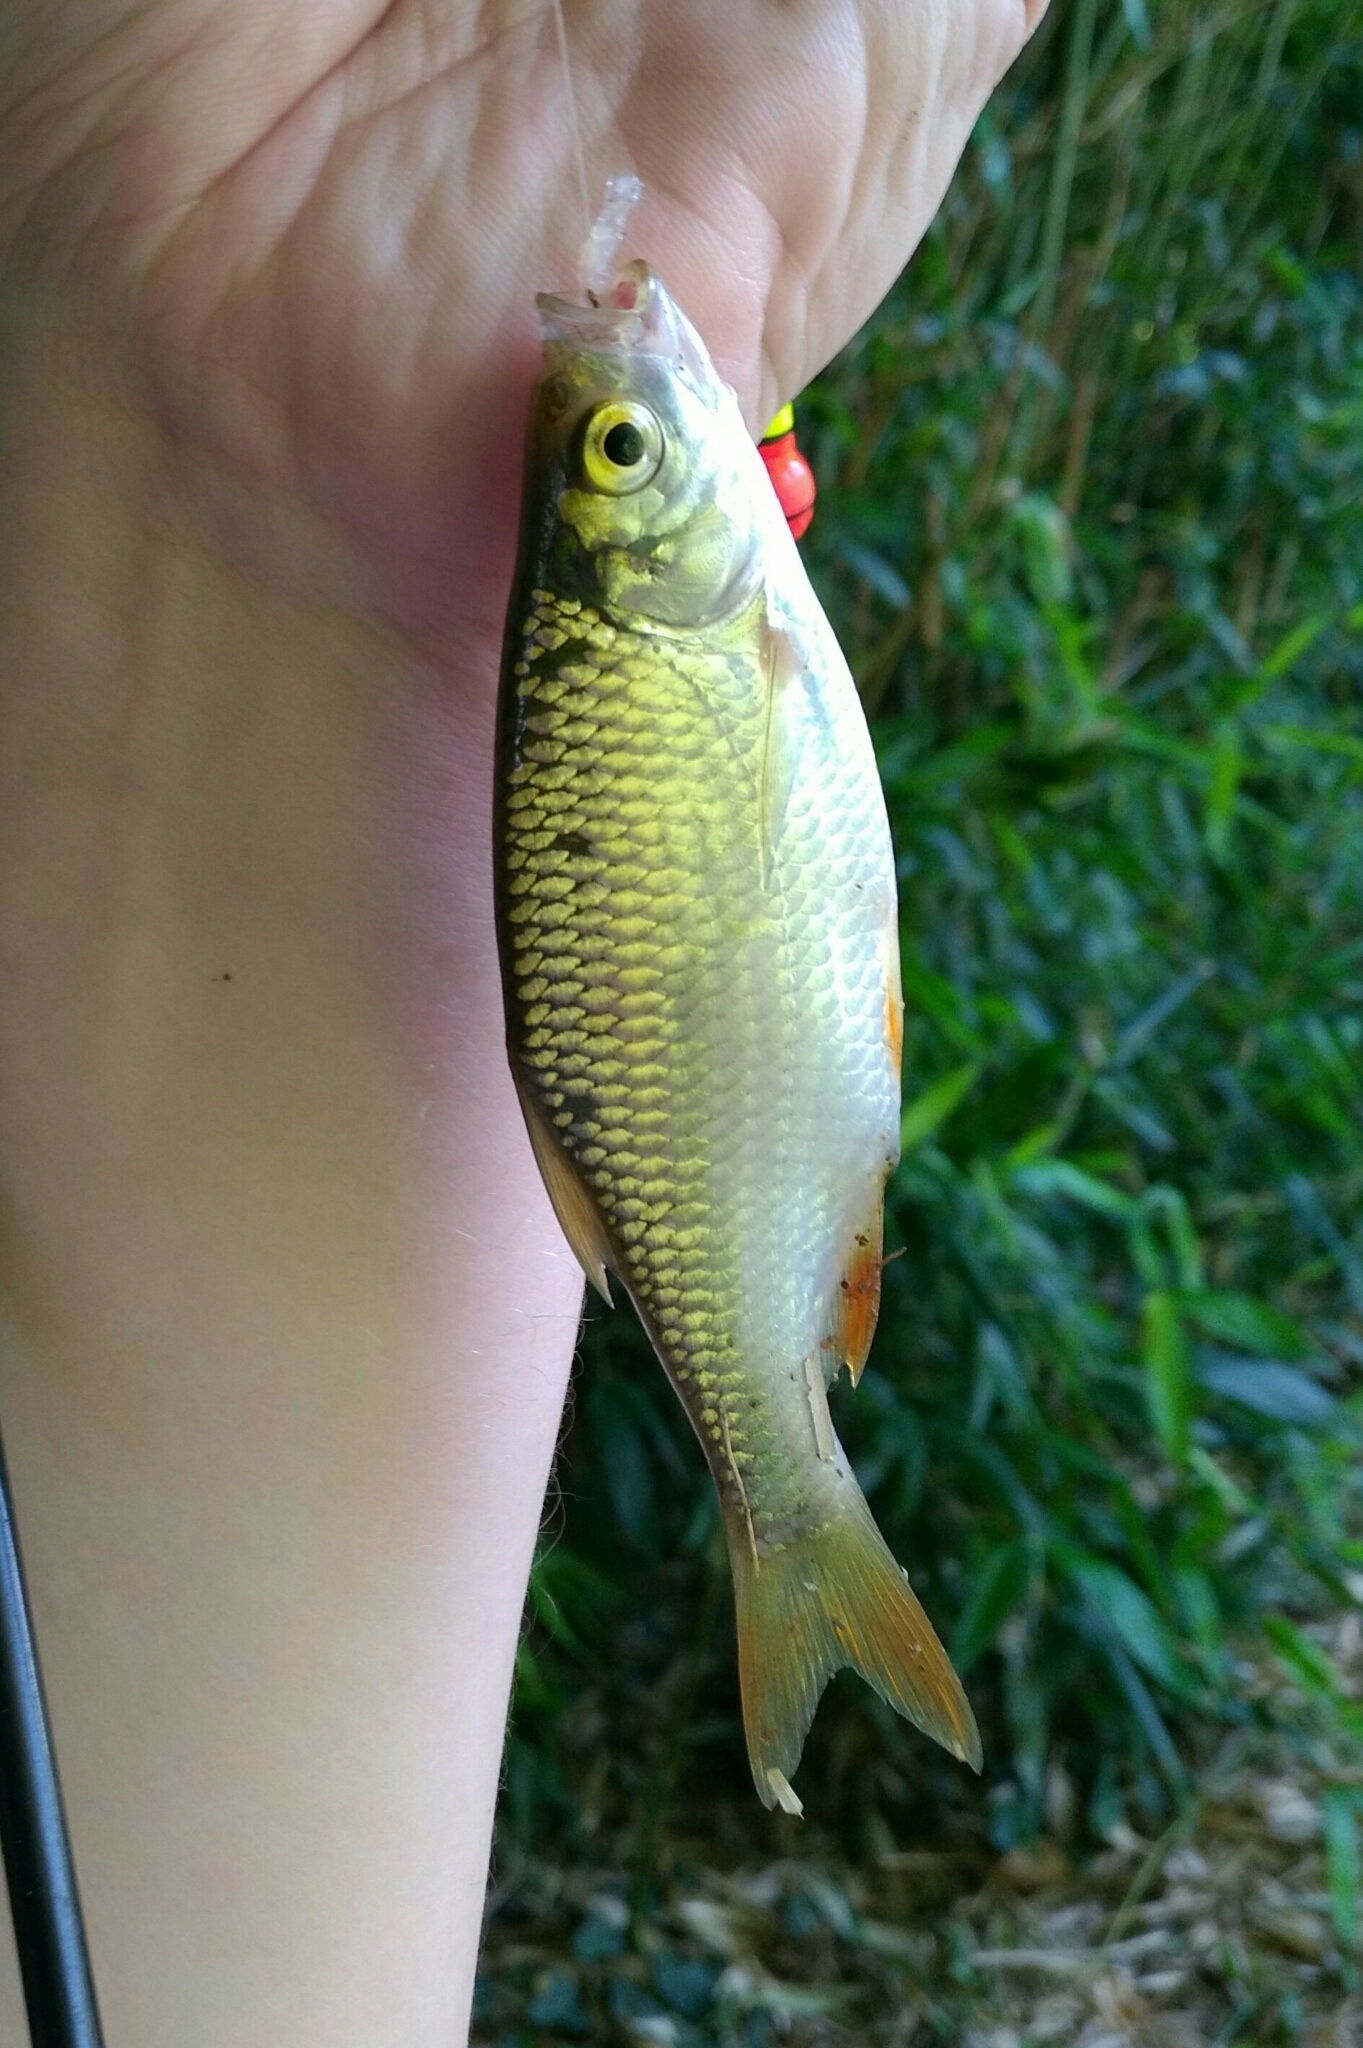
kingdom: Animalia
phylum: Chordata
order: Cypriniformes
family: Cyprinidae
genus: Scardinius
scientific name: Scardinius erythrophthalmus
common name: Rudd
